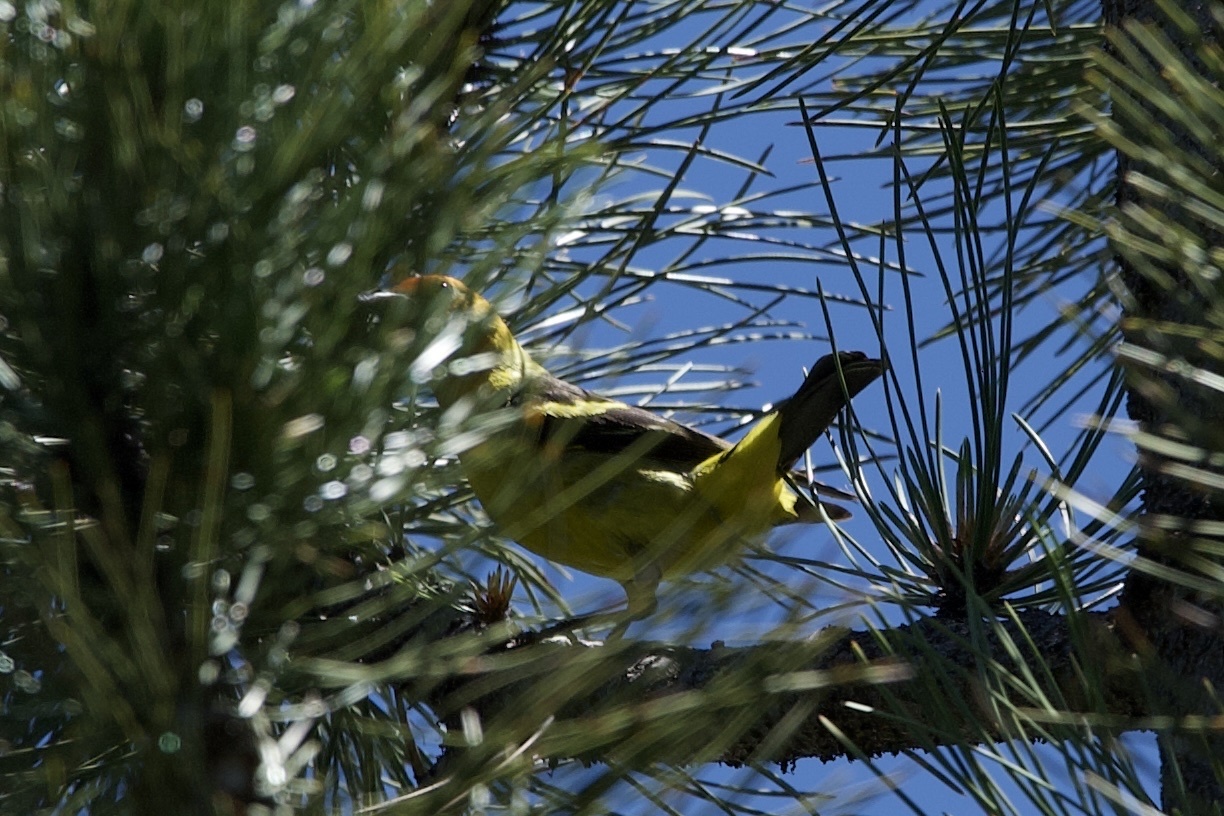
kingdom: Animalia
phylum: Chordata
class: Aves
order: Passeriformes
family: Cardinalidae
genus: Piranga
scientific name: Piranga ludoviciana
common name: Western tanager
